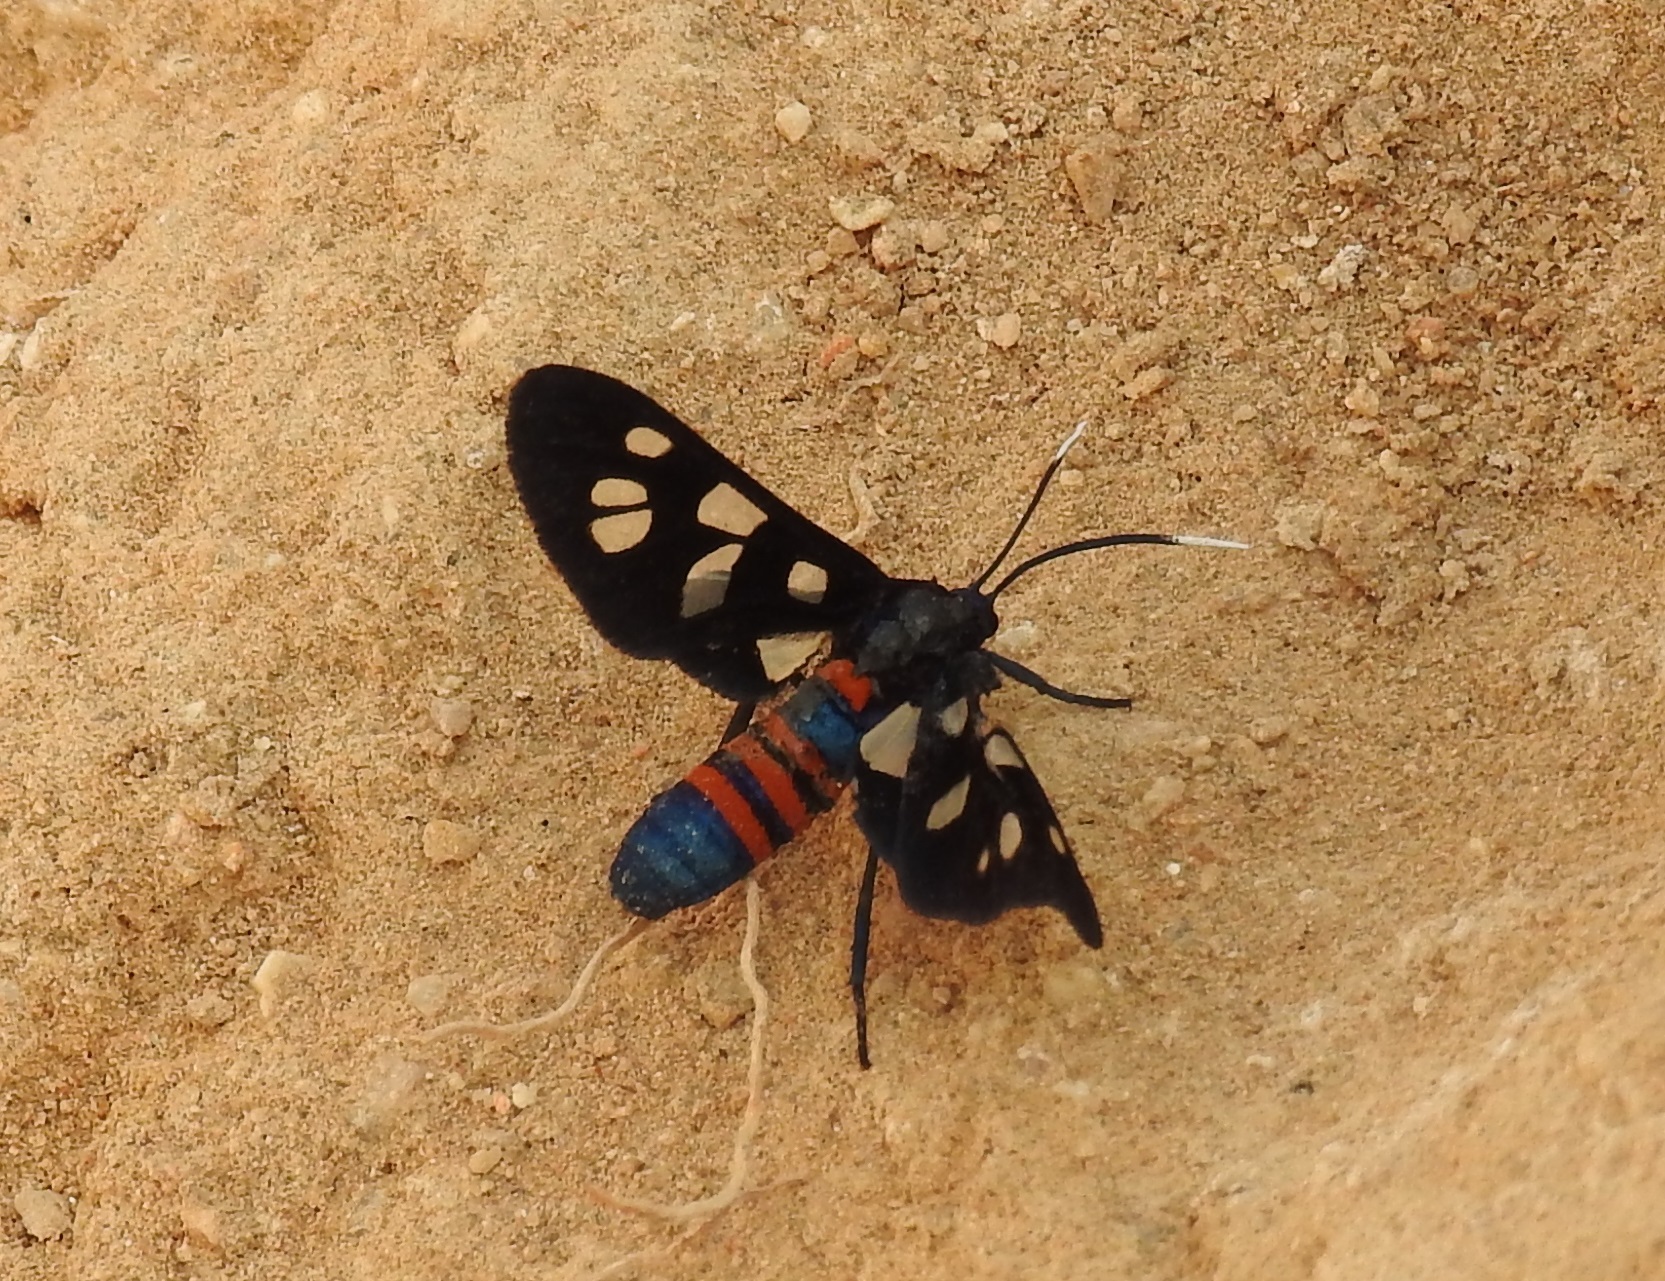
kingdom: Animalia
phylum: Arthropoda
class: Insecta
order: Lepidoptera
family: Erebidae
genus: Amata
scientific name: Amata alicia
